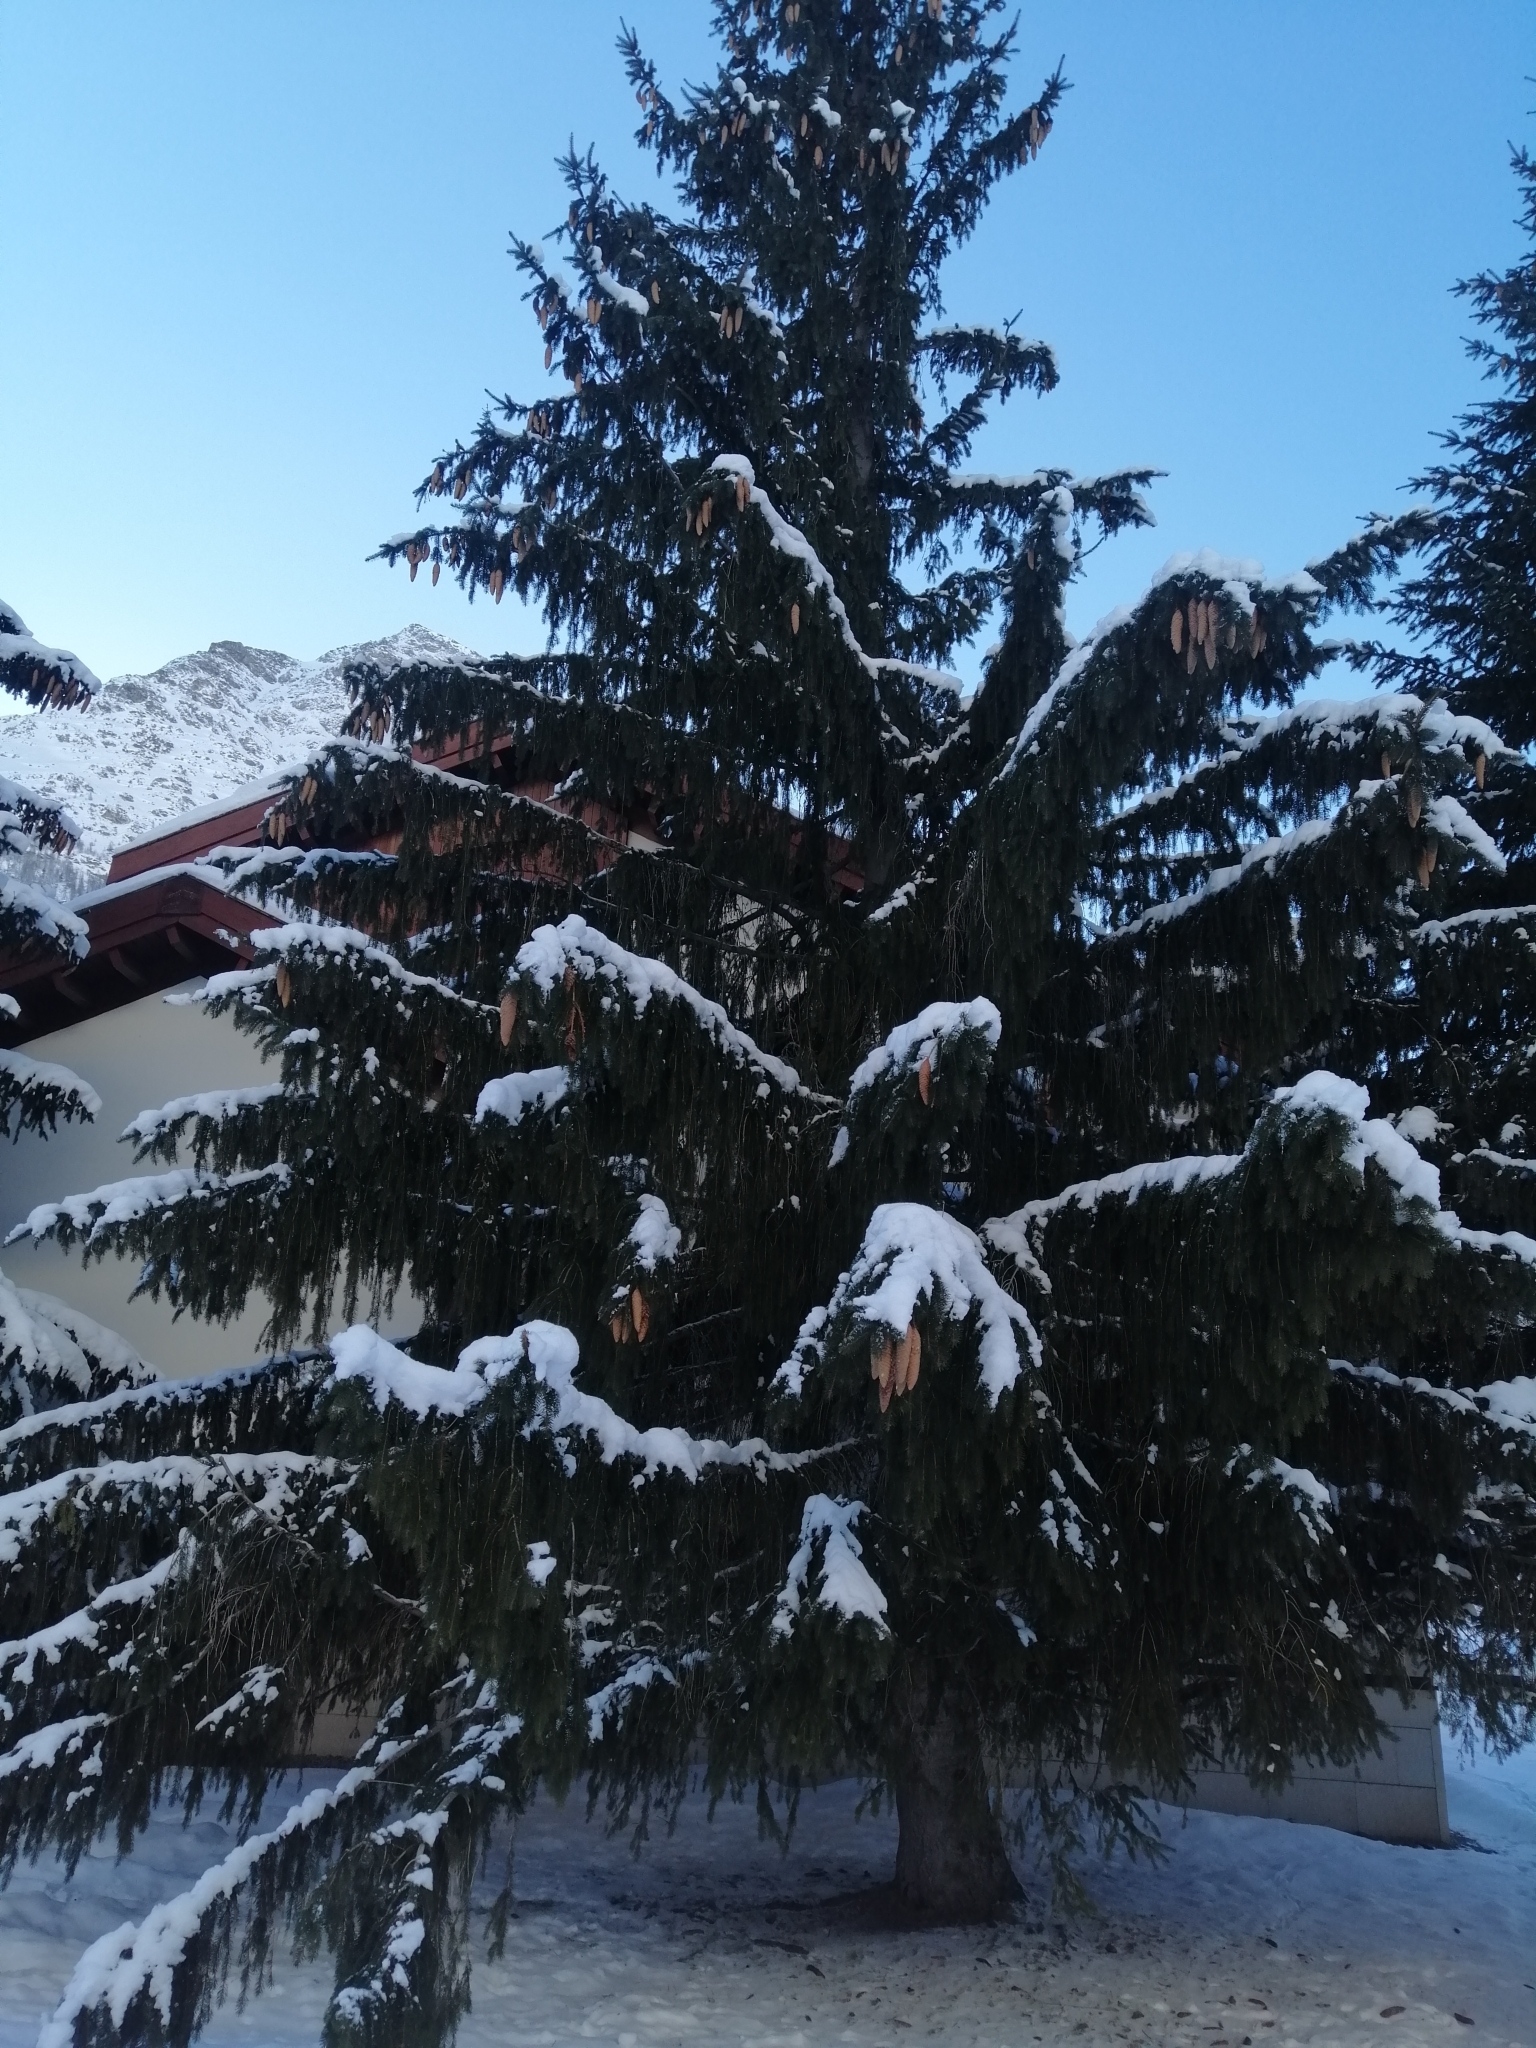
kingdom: Plantae
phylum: Tracheophyta
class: Pinopsida
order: Pinales
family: Pinaceae
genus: Picea
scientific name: Picea abies
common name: Norway spruce
